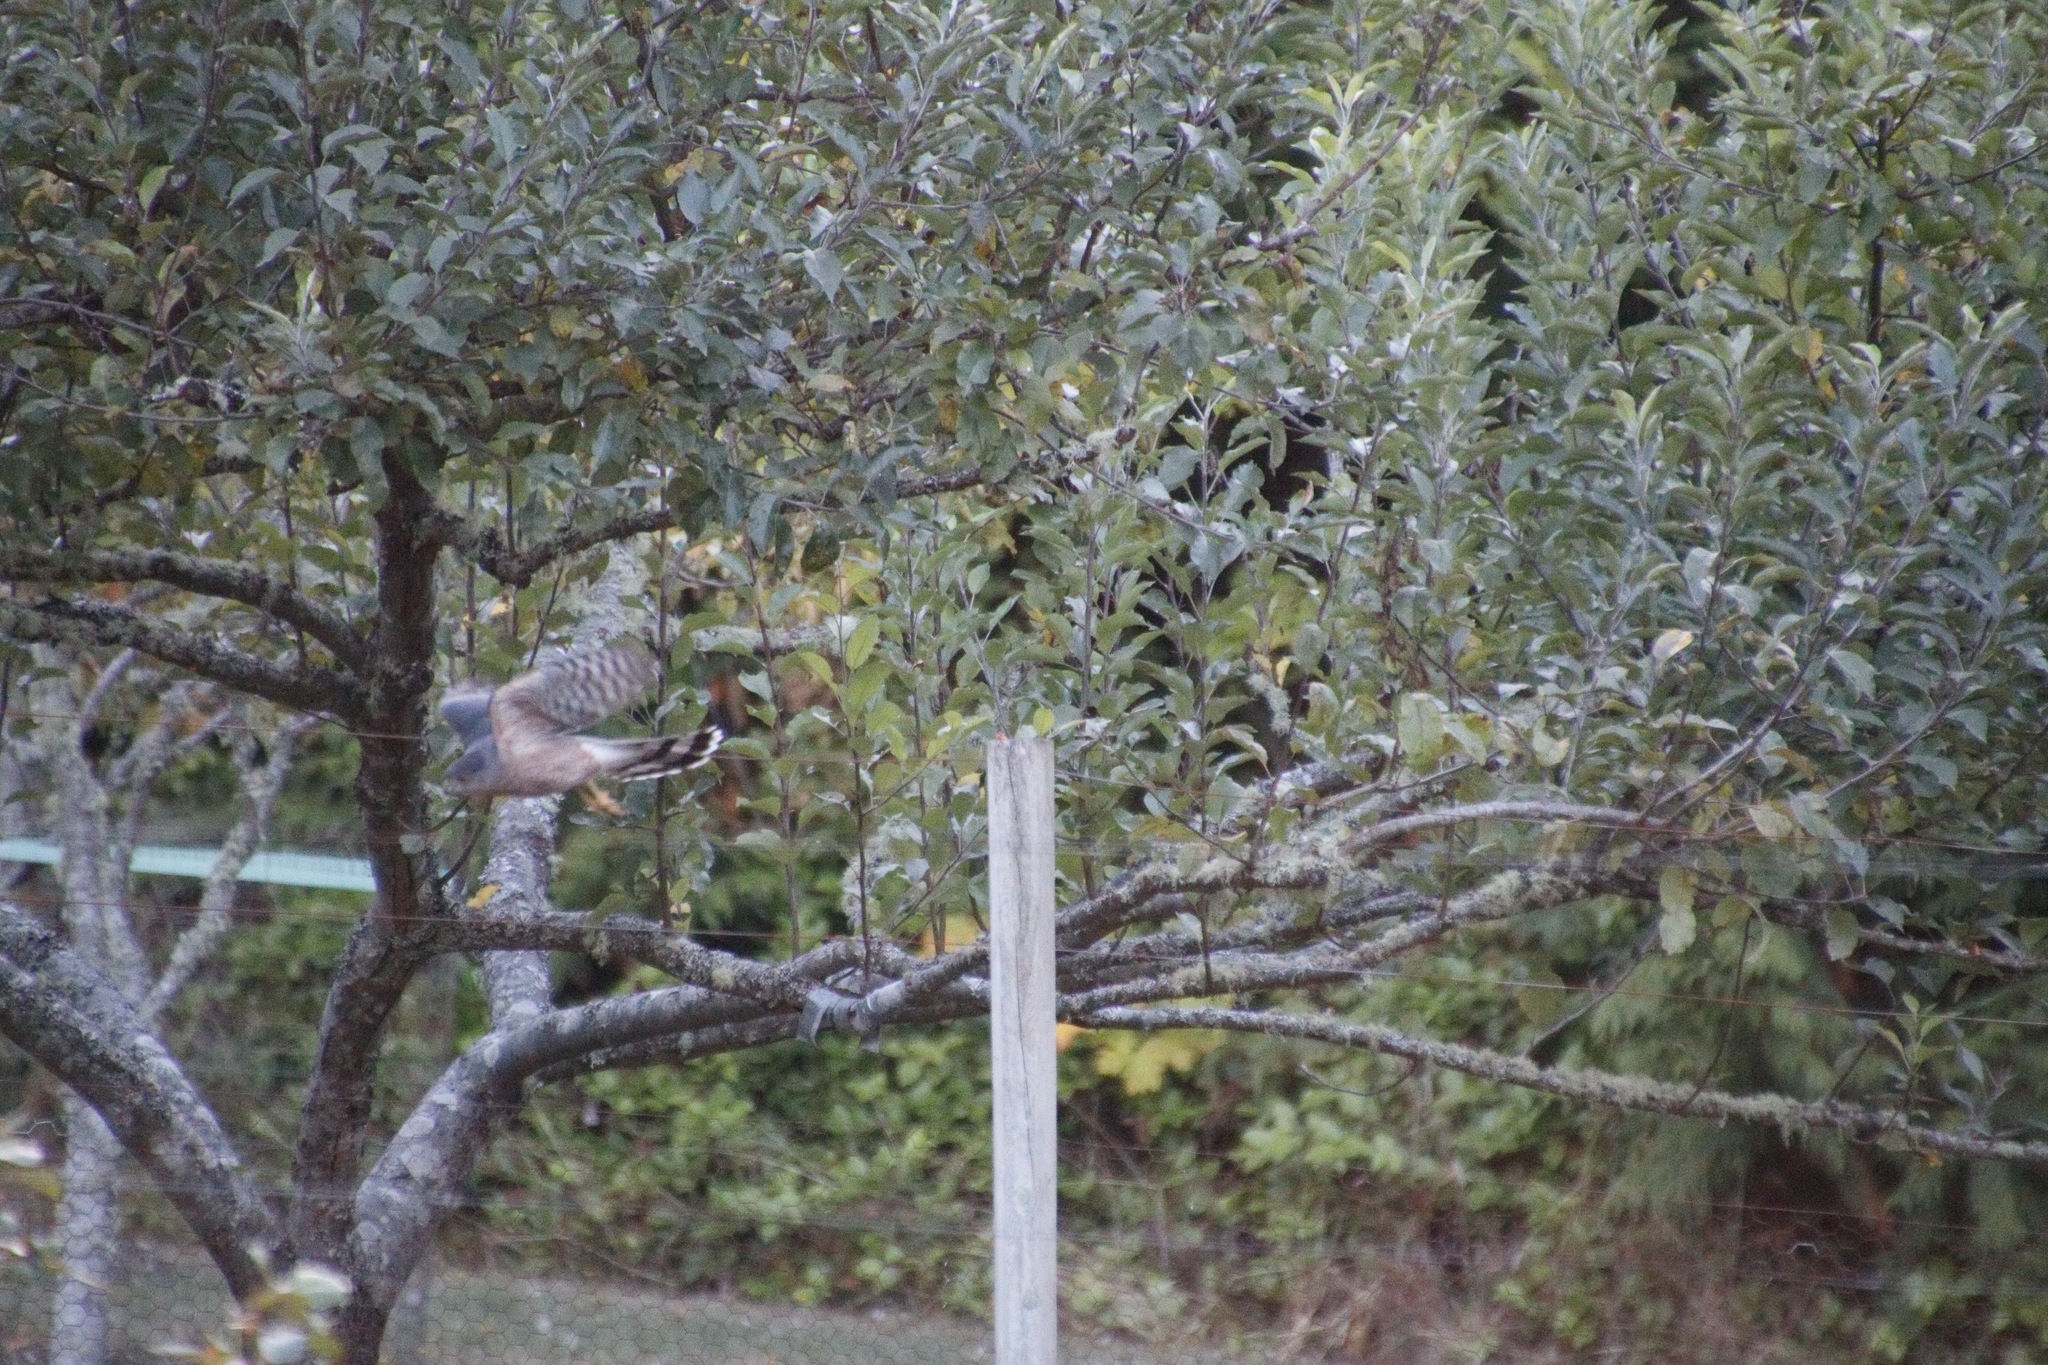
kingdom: Animalia
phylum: Chordata
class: Aves
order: Accipitriformes
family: Accipitridae
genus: Accipiter
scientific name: Accipiter cooperii
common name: Cooper's hawk
